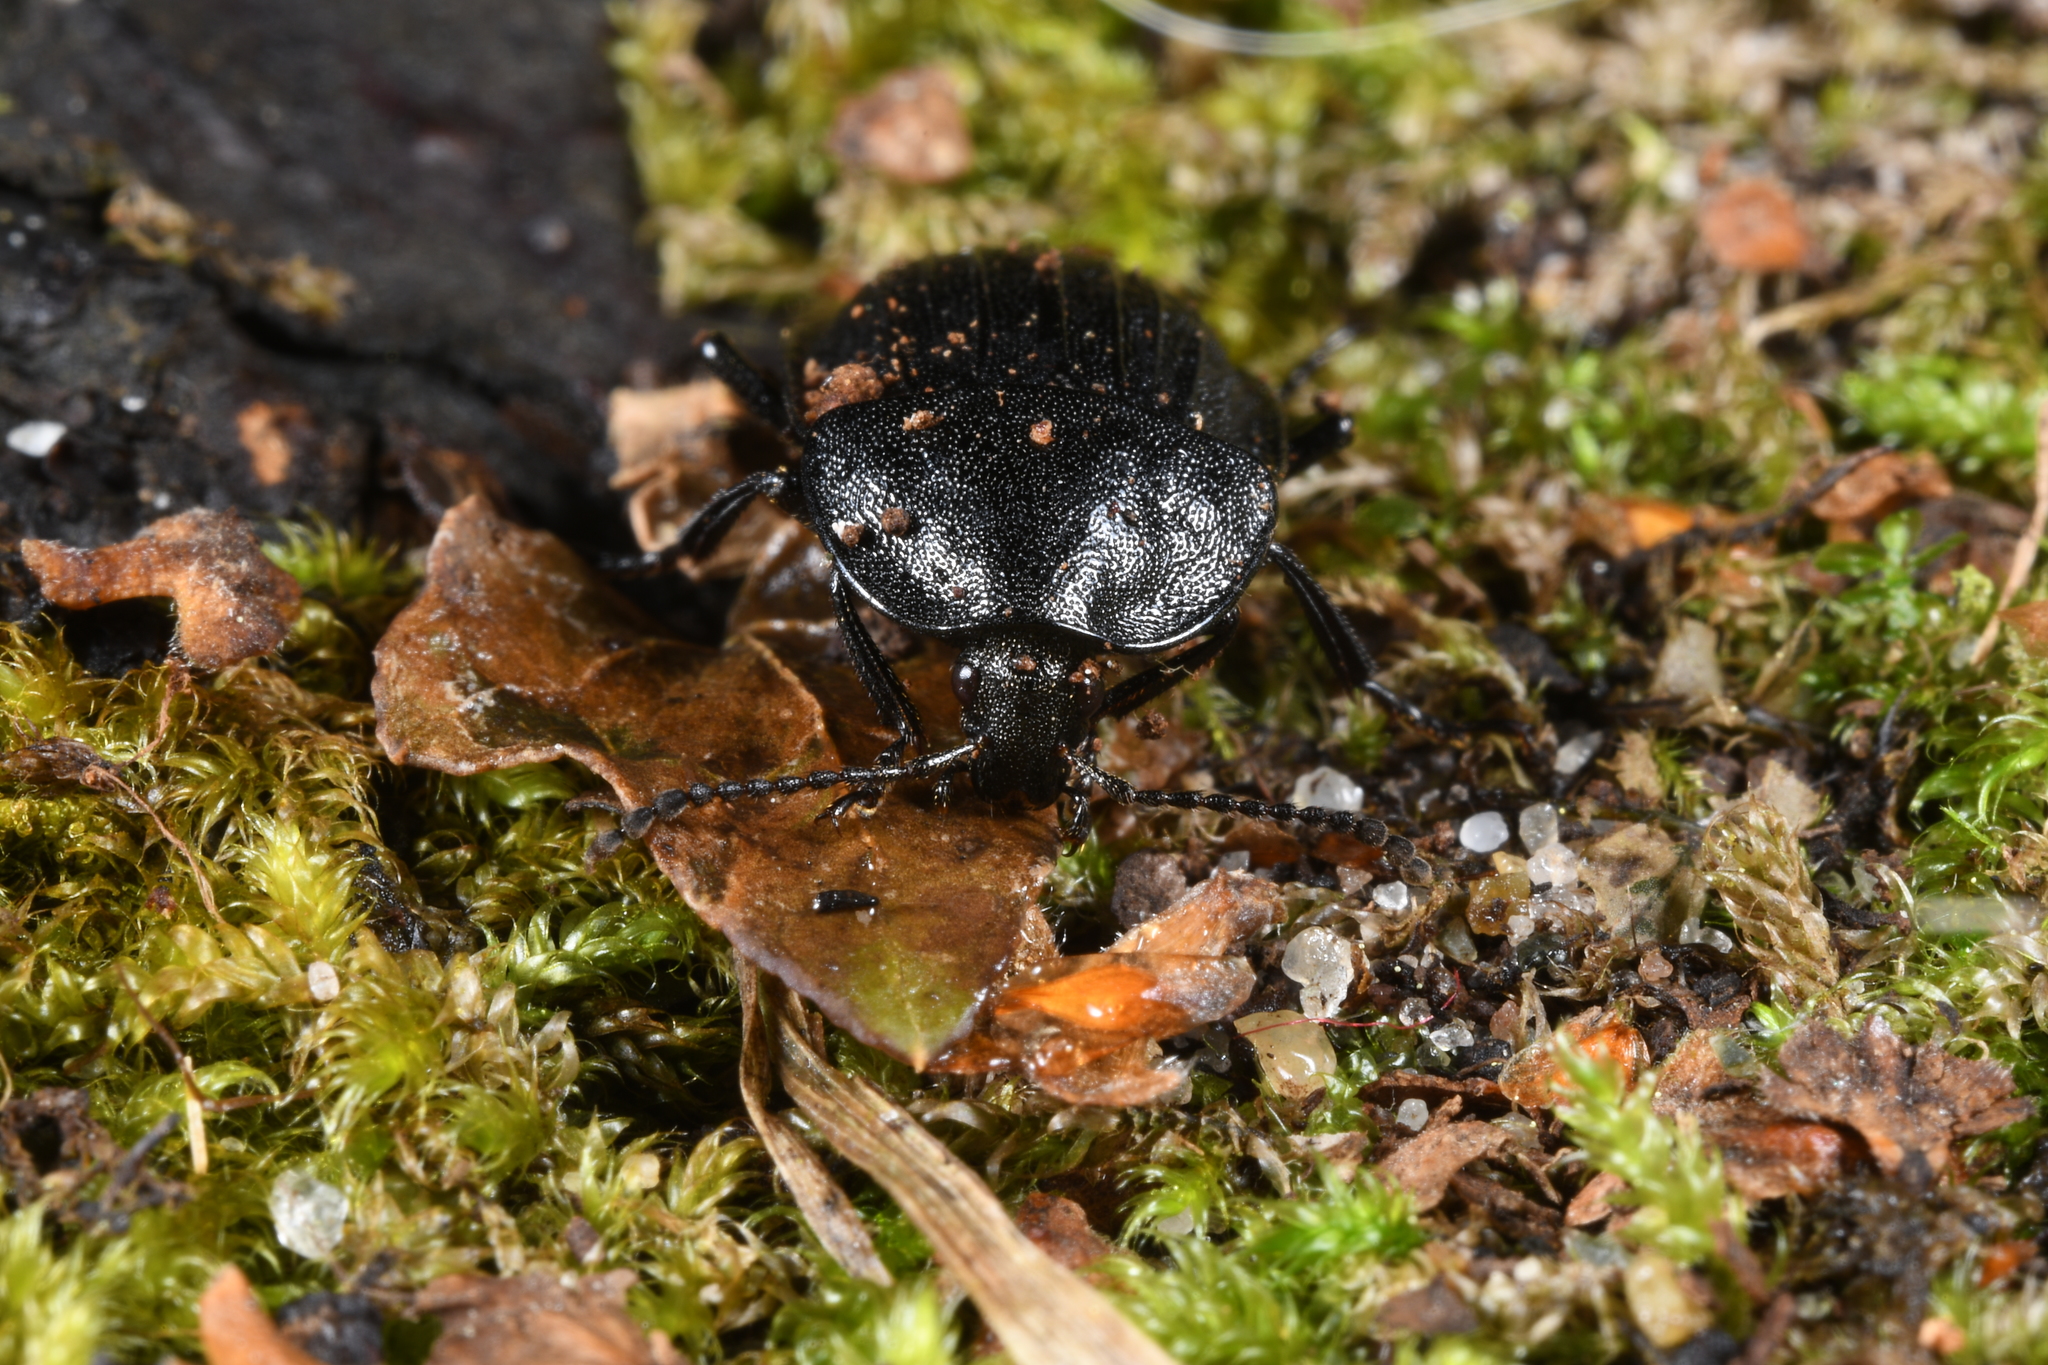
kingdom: Animalia
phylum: Arthropoda
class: Insecta
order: Coleoptera
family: Staphylinidae
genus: Silpha
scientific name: Silpha atrata
